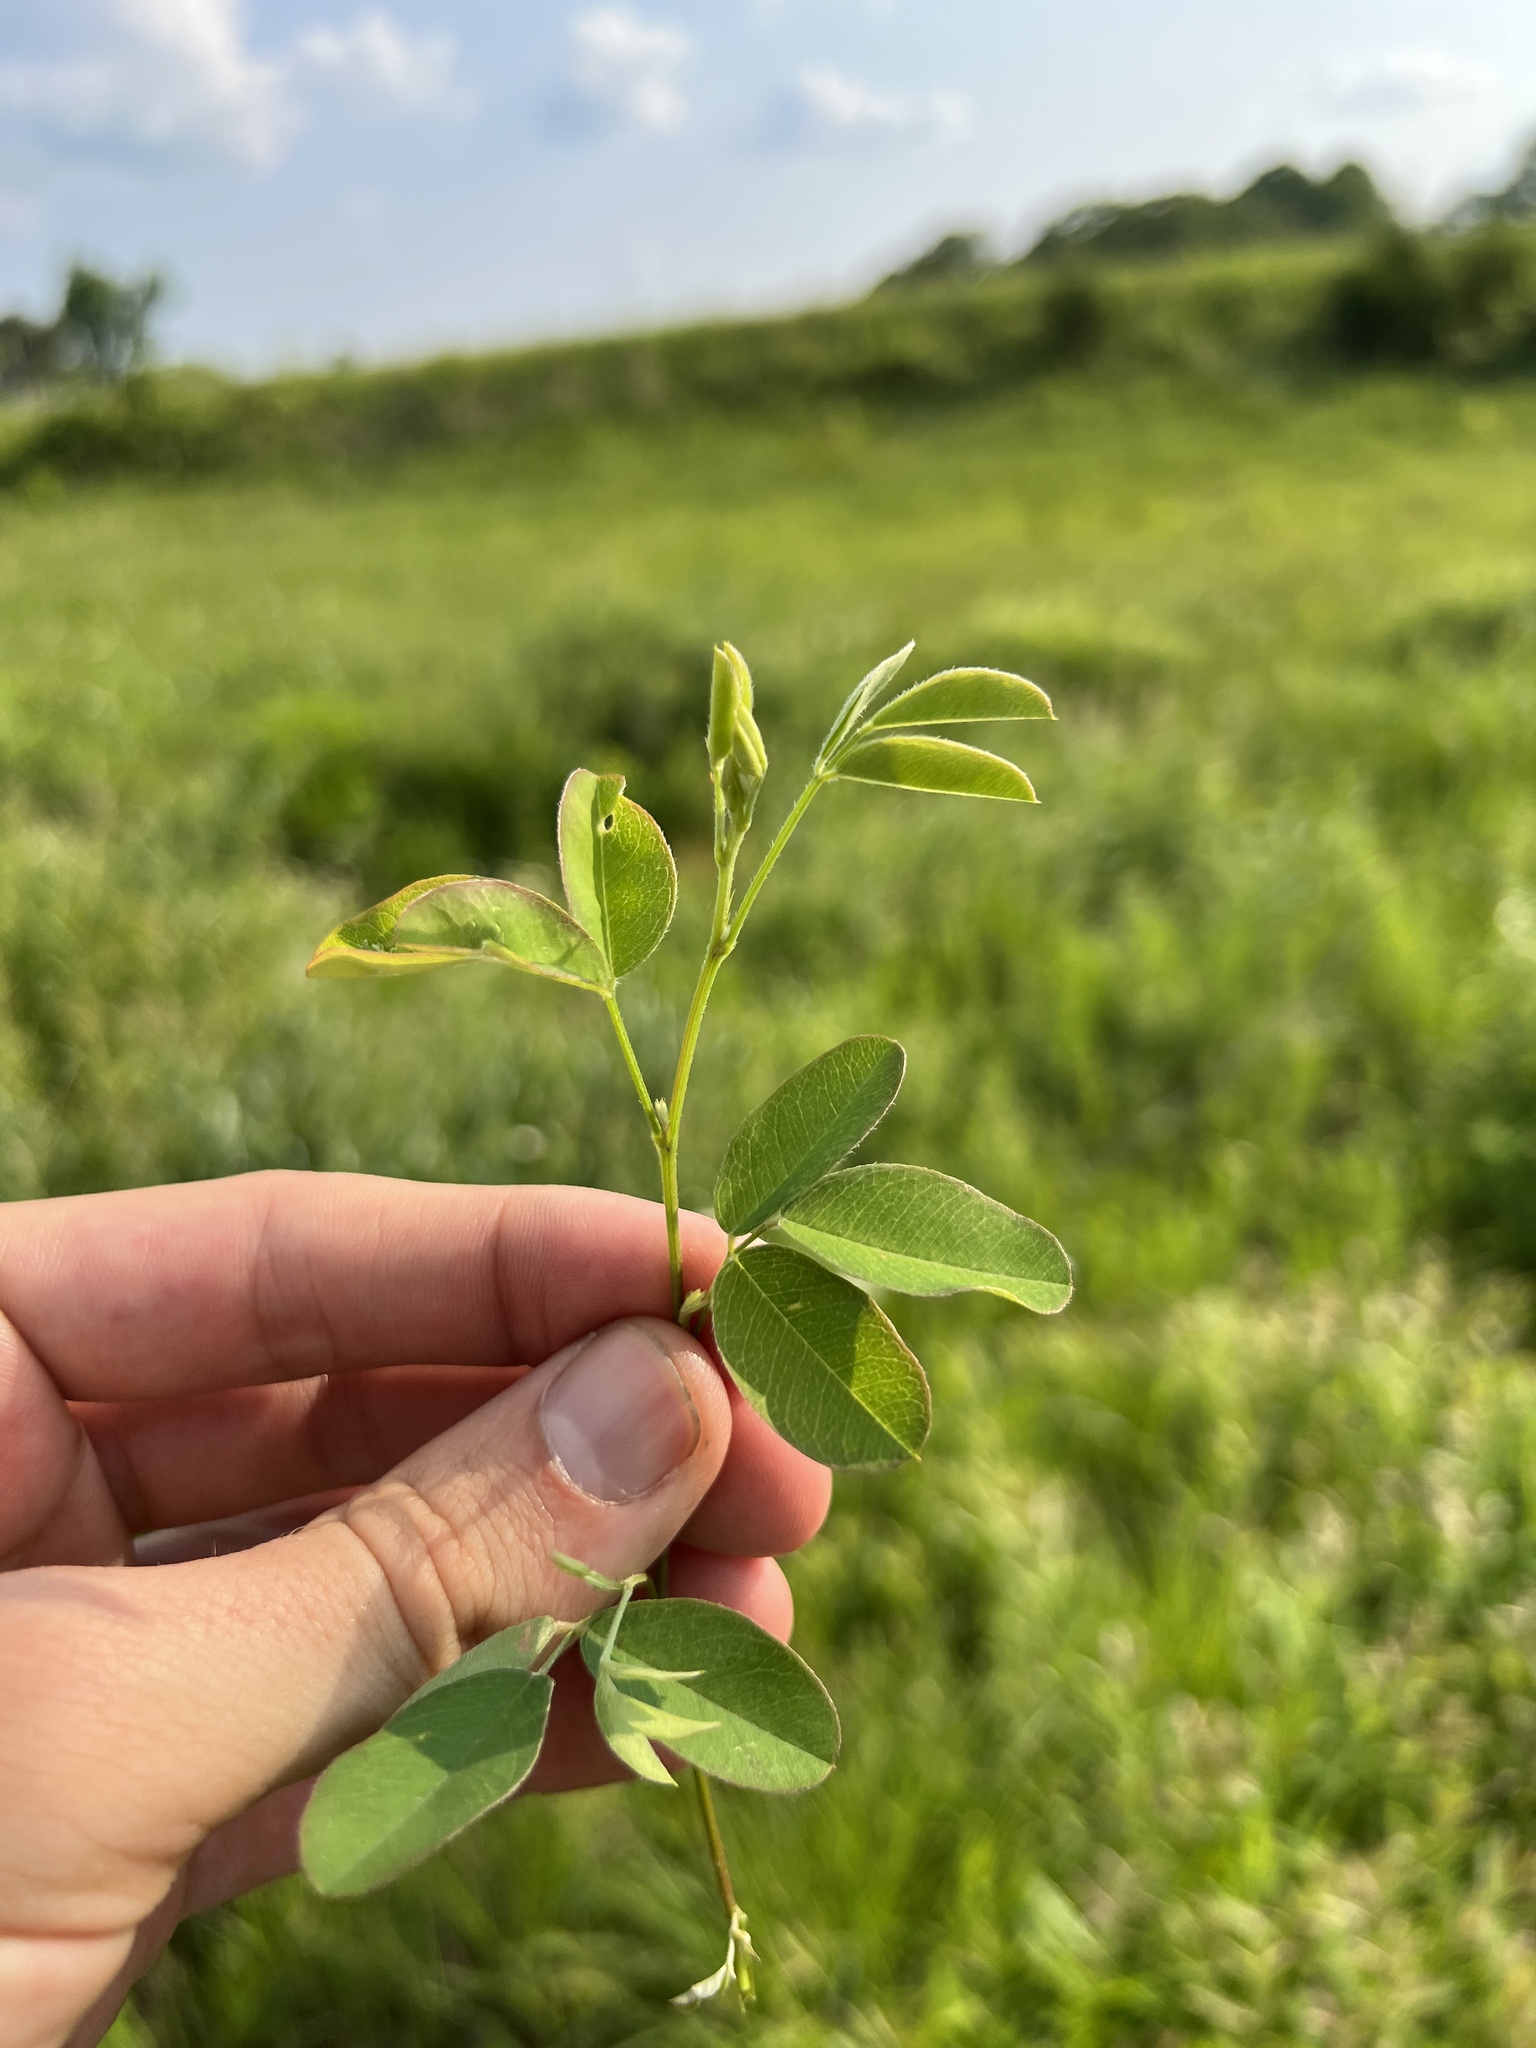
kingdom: Plantae
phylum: Tracheophyta
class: Magnoliopsida
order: Fabales
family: Fabaceae
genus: Lespedeza
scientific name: Lespedeza
